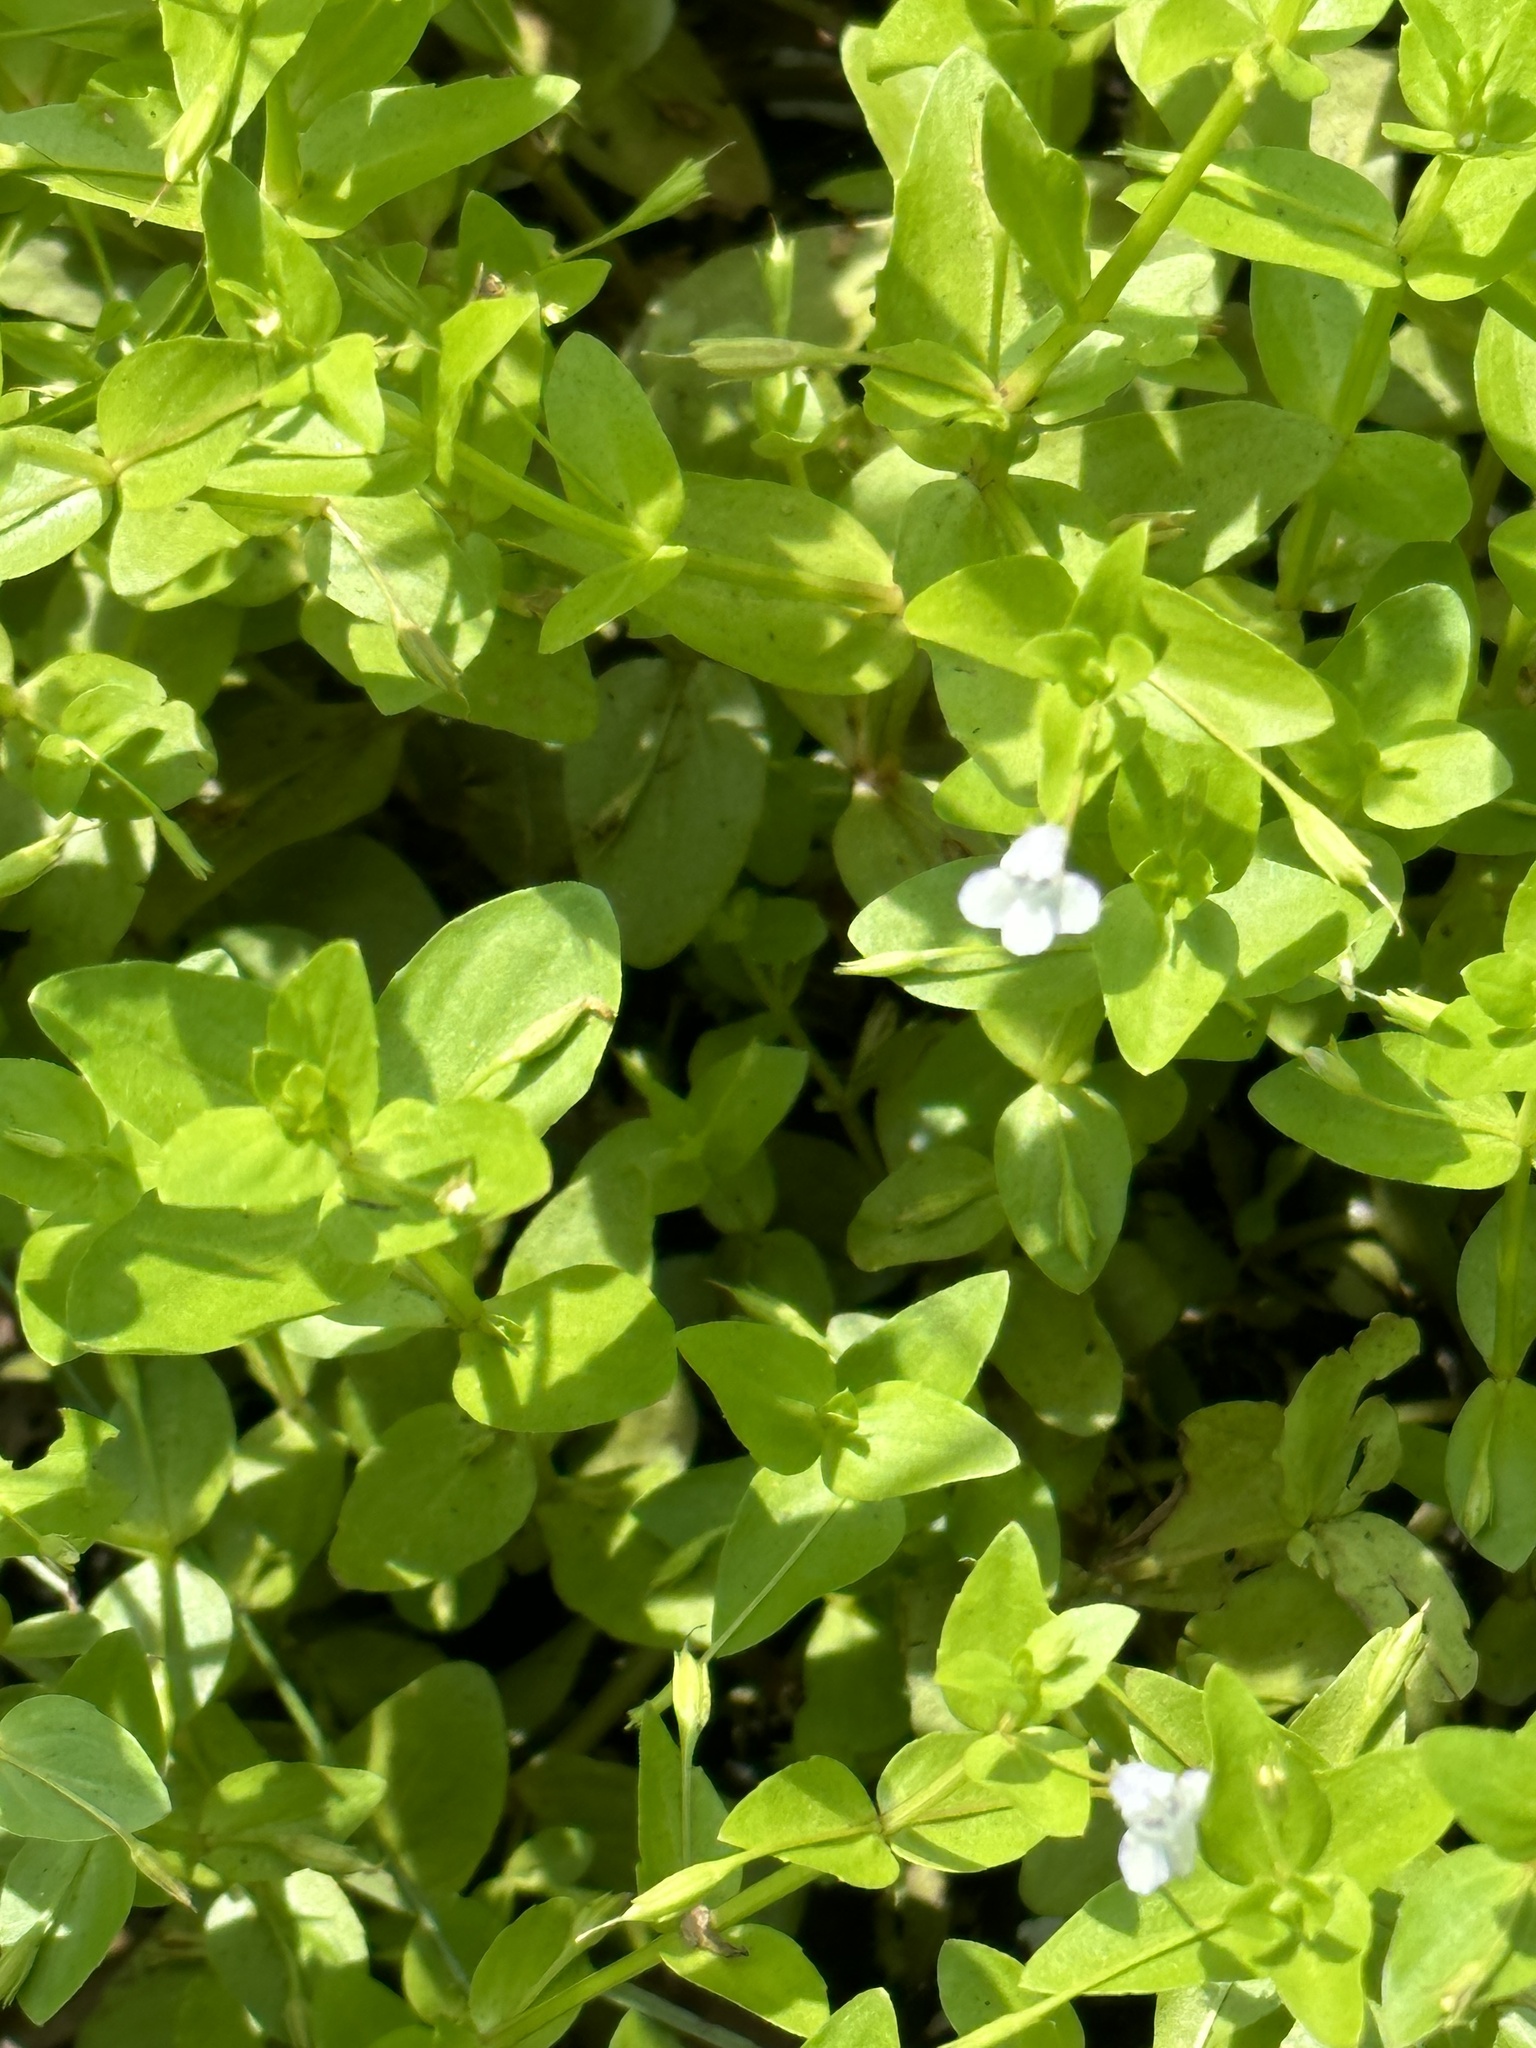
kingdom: Plantae
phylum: Tracheophyta
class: Magnoliopsida
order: Lamiales
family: Linderniaceae
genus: Lindernia
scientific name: Lindernia dubia
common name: Annual false pimpernel
